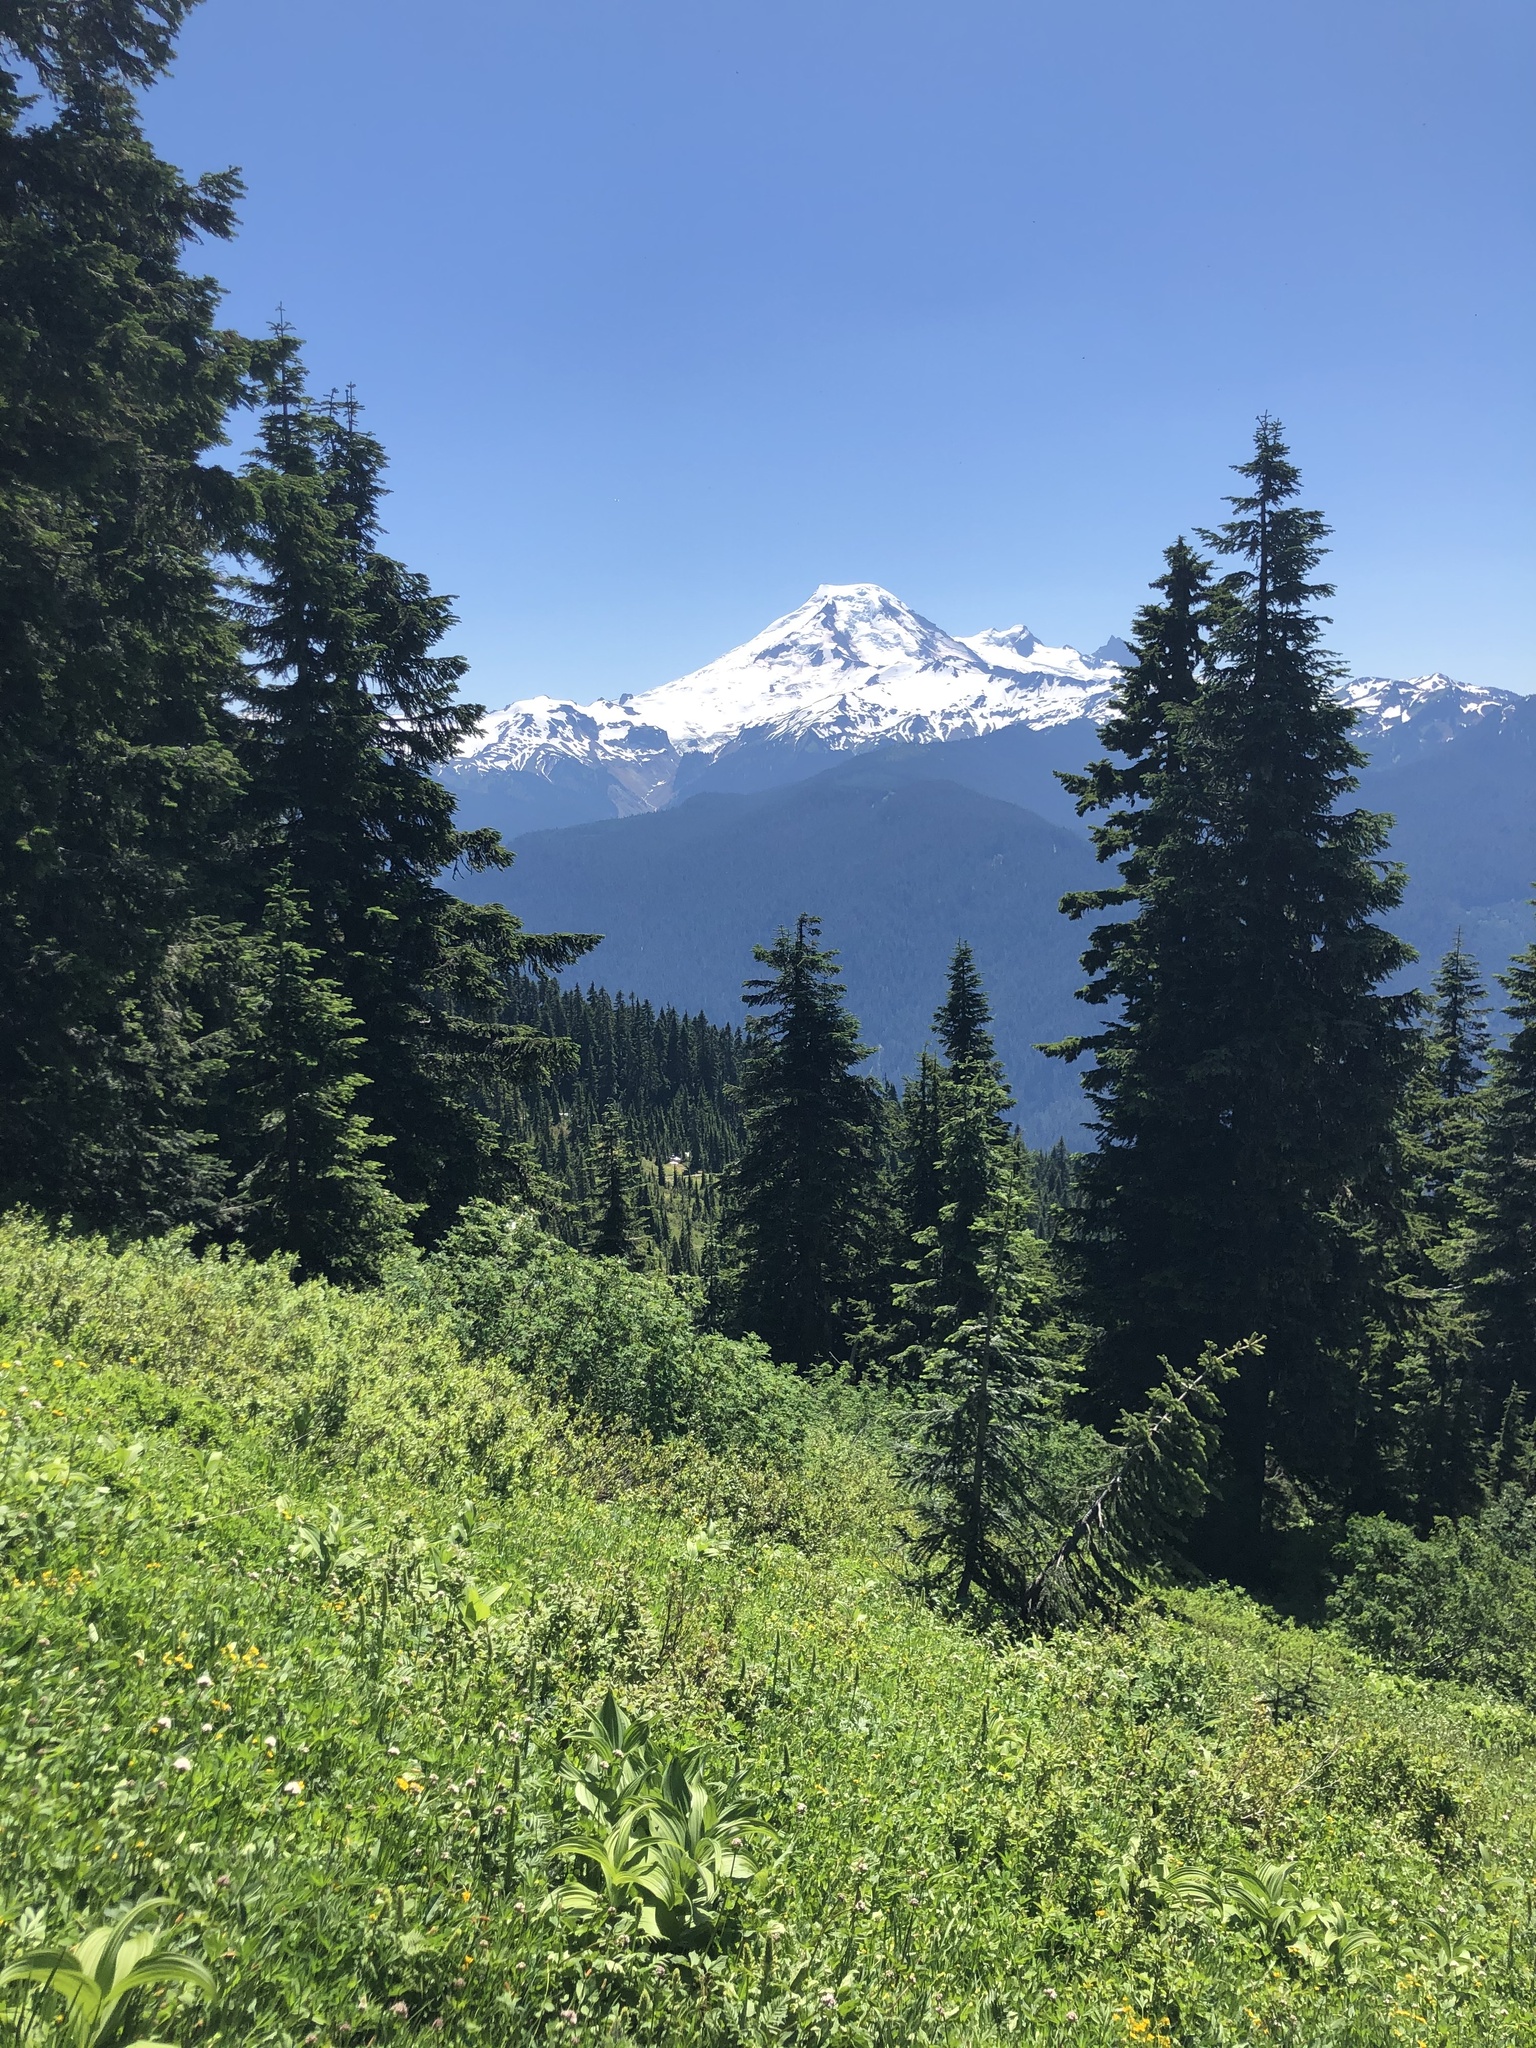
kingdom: Plantae
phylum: Tracheophyta
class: Pinopsida
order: Pinales
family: Pinaceae
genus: Abies
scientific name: Abies amabilis
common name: Pacific silver fir
